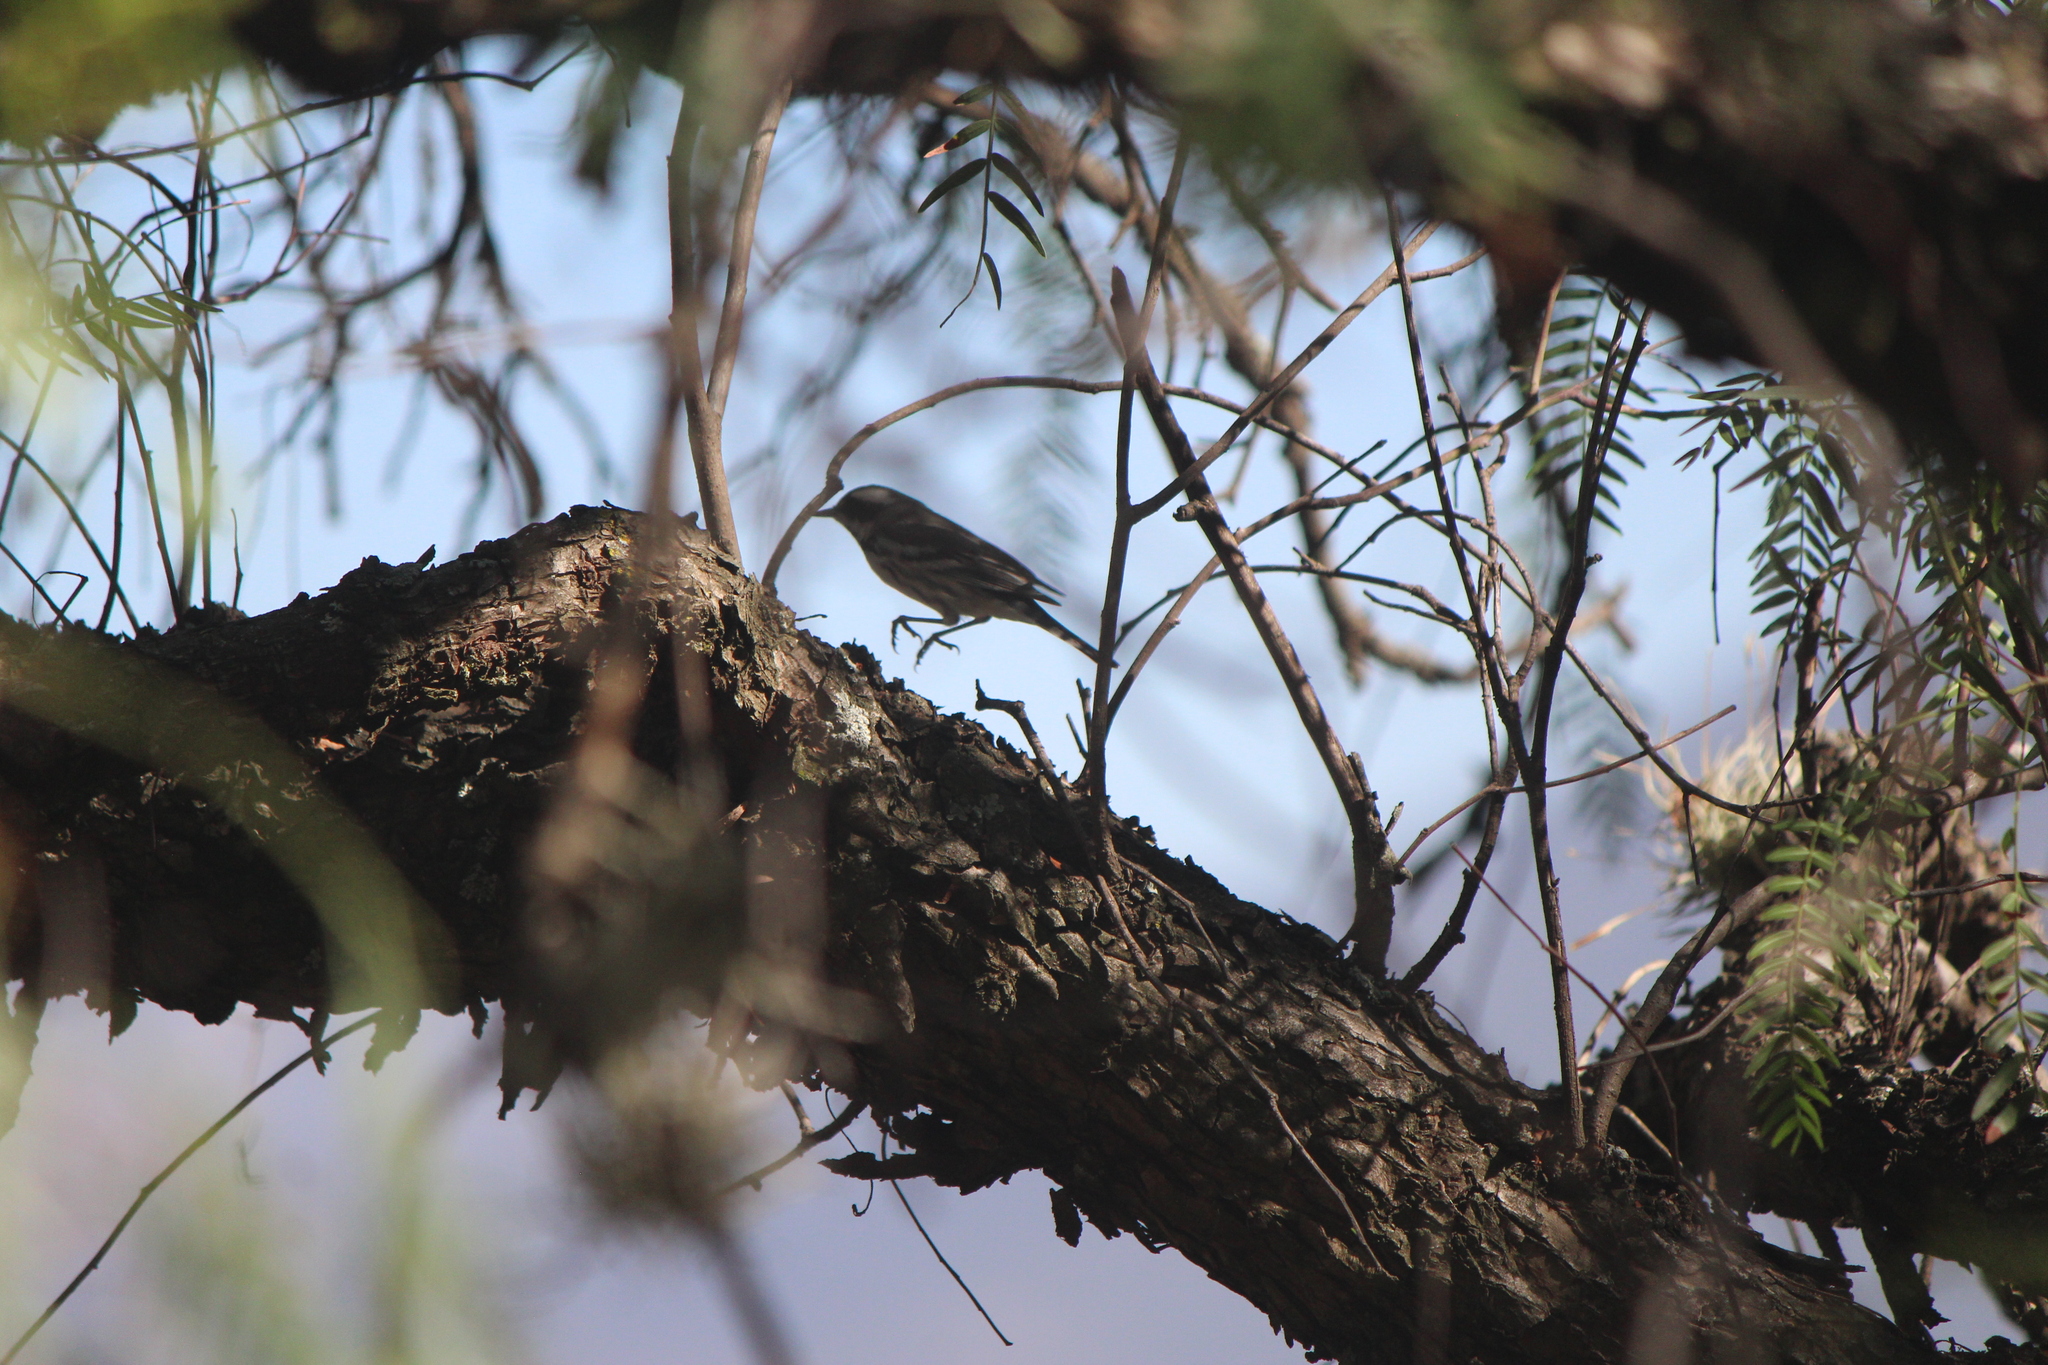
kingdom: Animalia
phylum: Chordata
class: Aves
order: Passeriformes
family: Parulidae
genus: Setophaga
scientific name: Setophaga nigrescens
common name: Black-throated gray warbler
